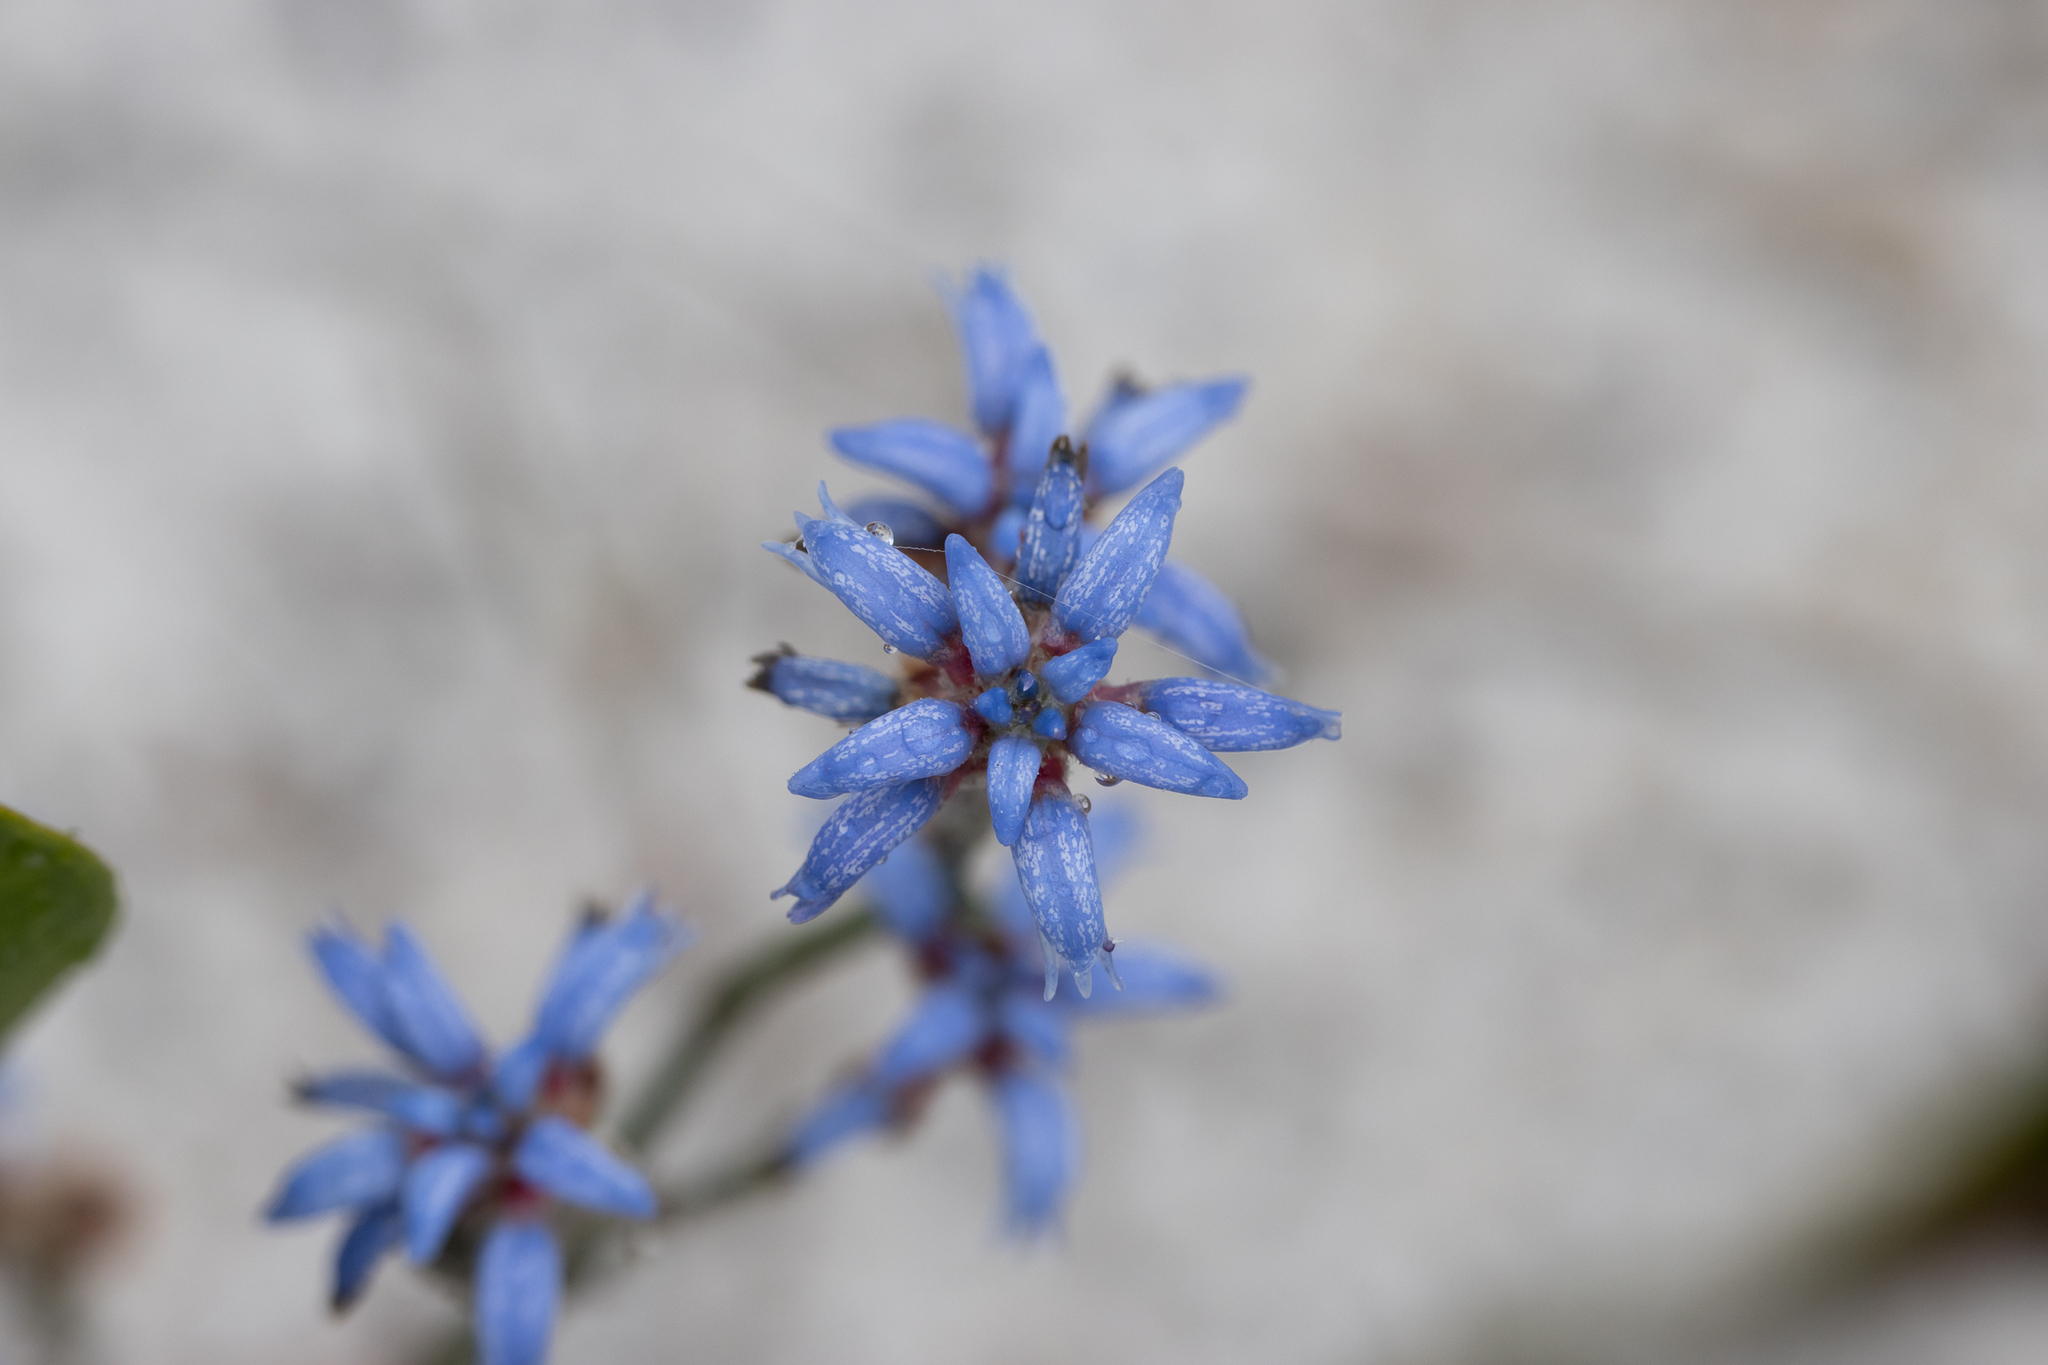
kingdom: Plantae
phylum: Tracheophyta
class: Magnoliopsida
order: Proteales
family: Proteaceae
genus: Conospermum
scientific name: Conospermum caeruleum
